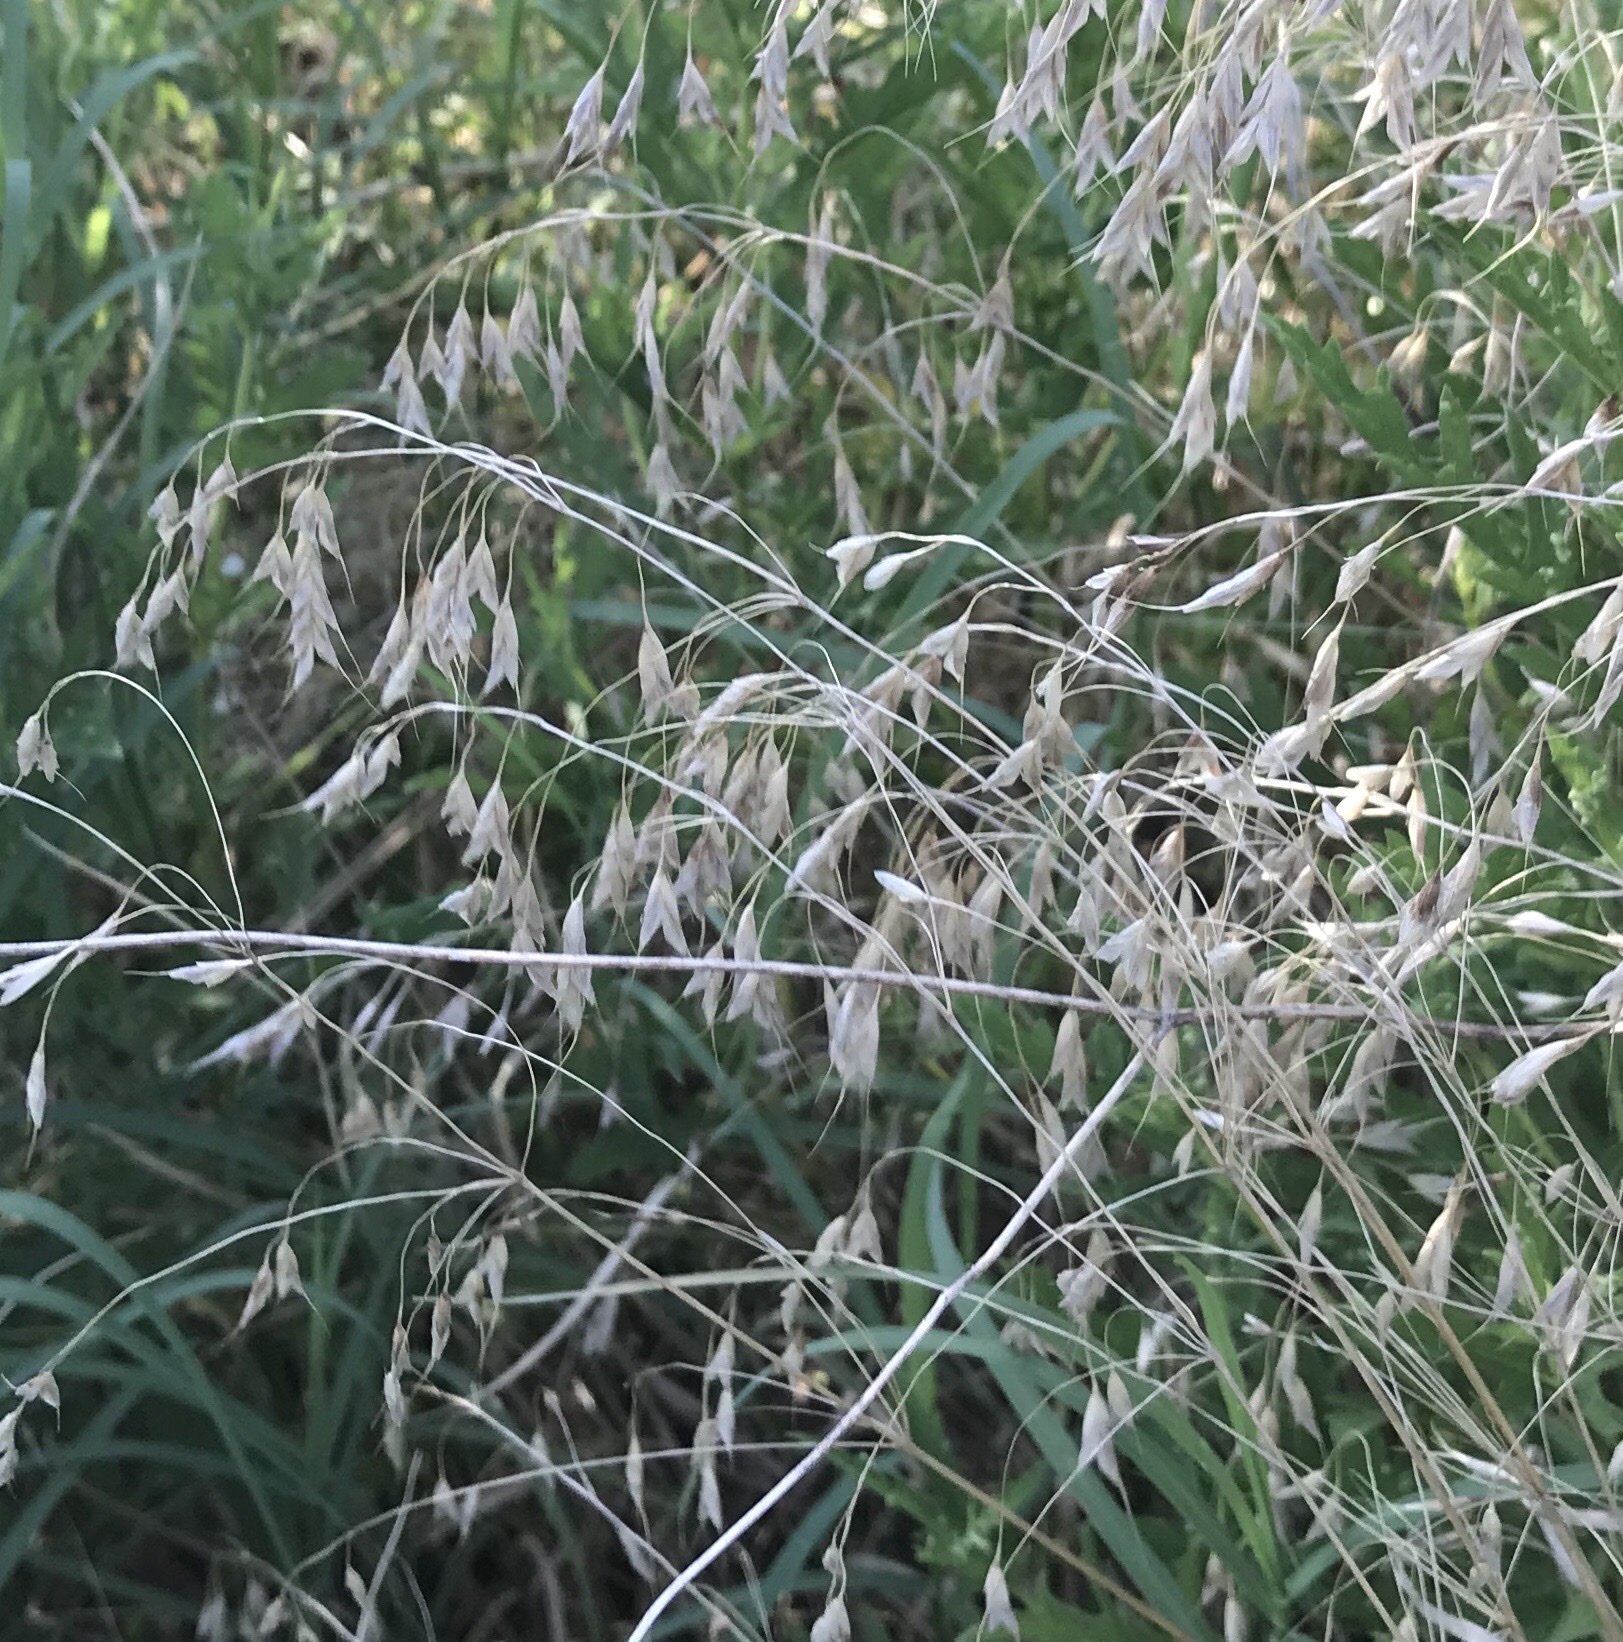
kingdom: Plantae
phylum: Tracheophyta
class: Liliopsida
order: Poales
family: Poaceae
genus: Bromus
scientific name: Bromus japonicus
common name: Japanese brome
